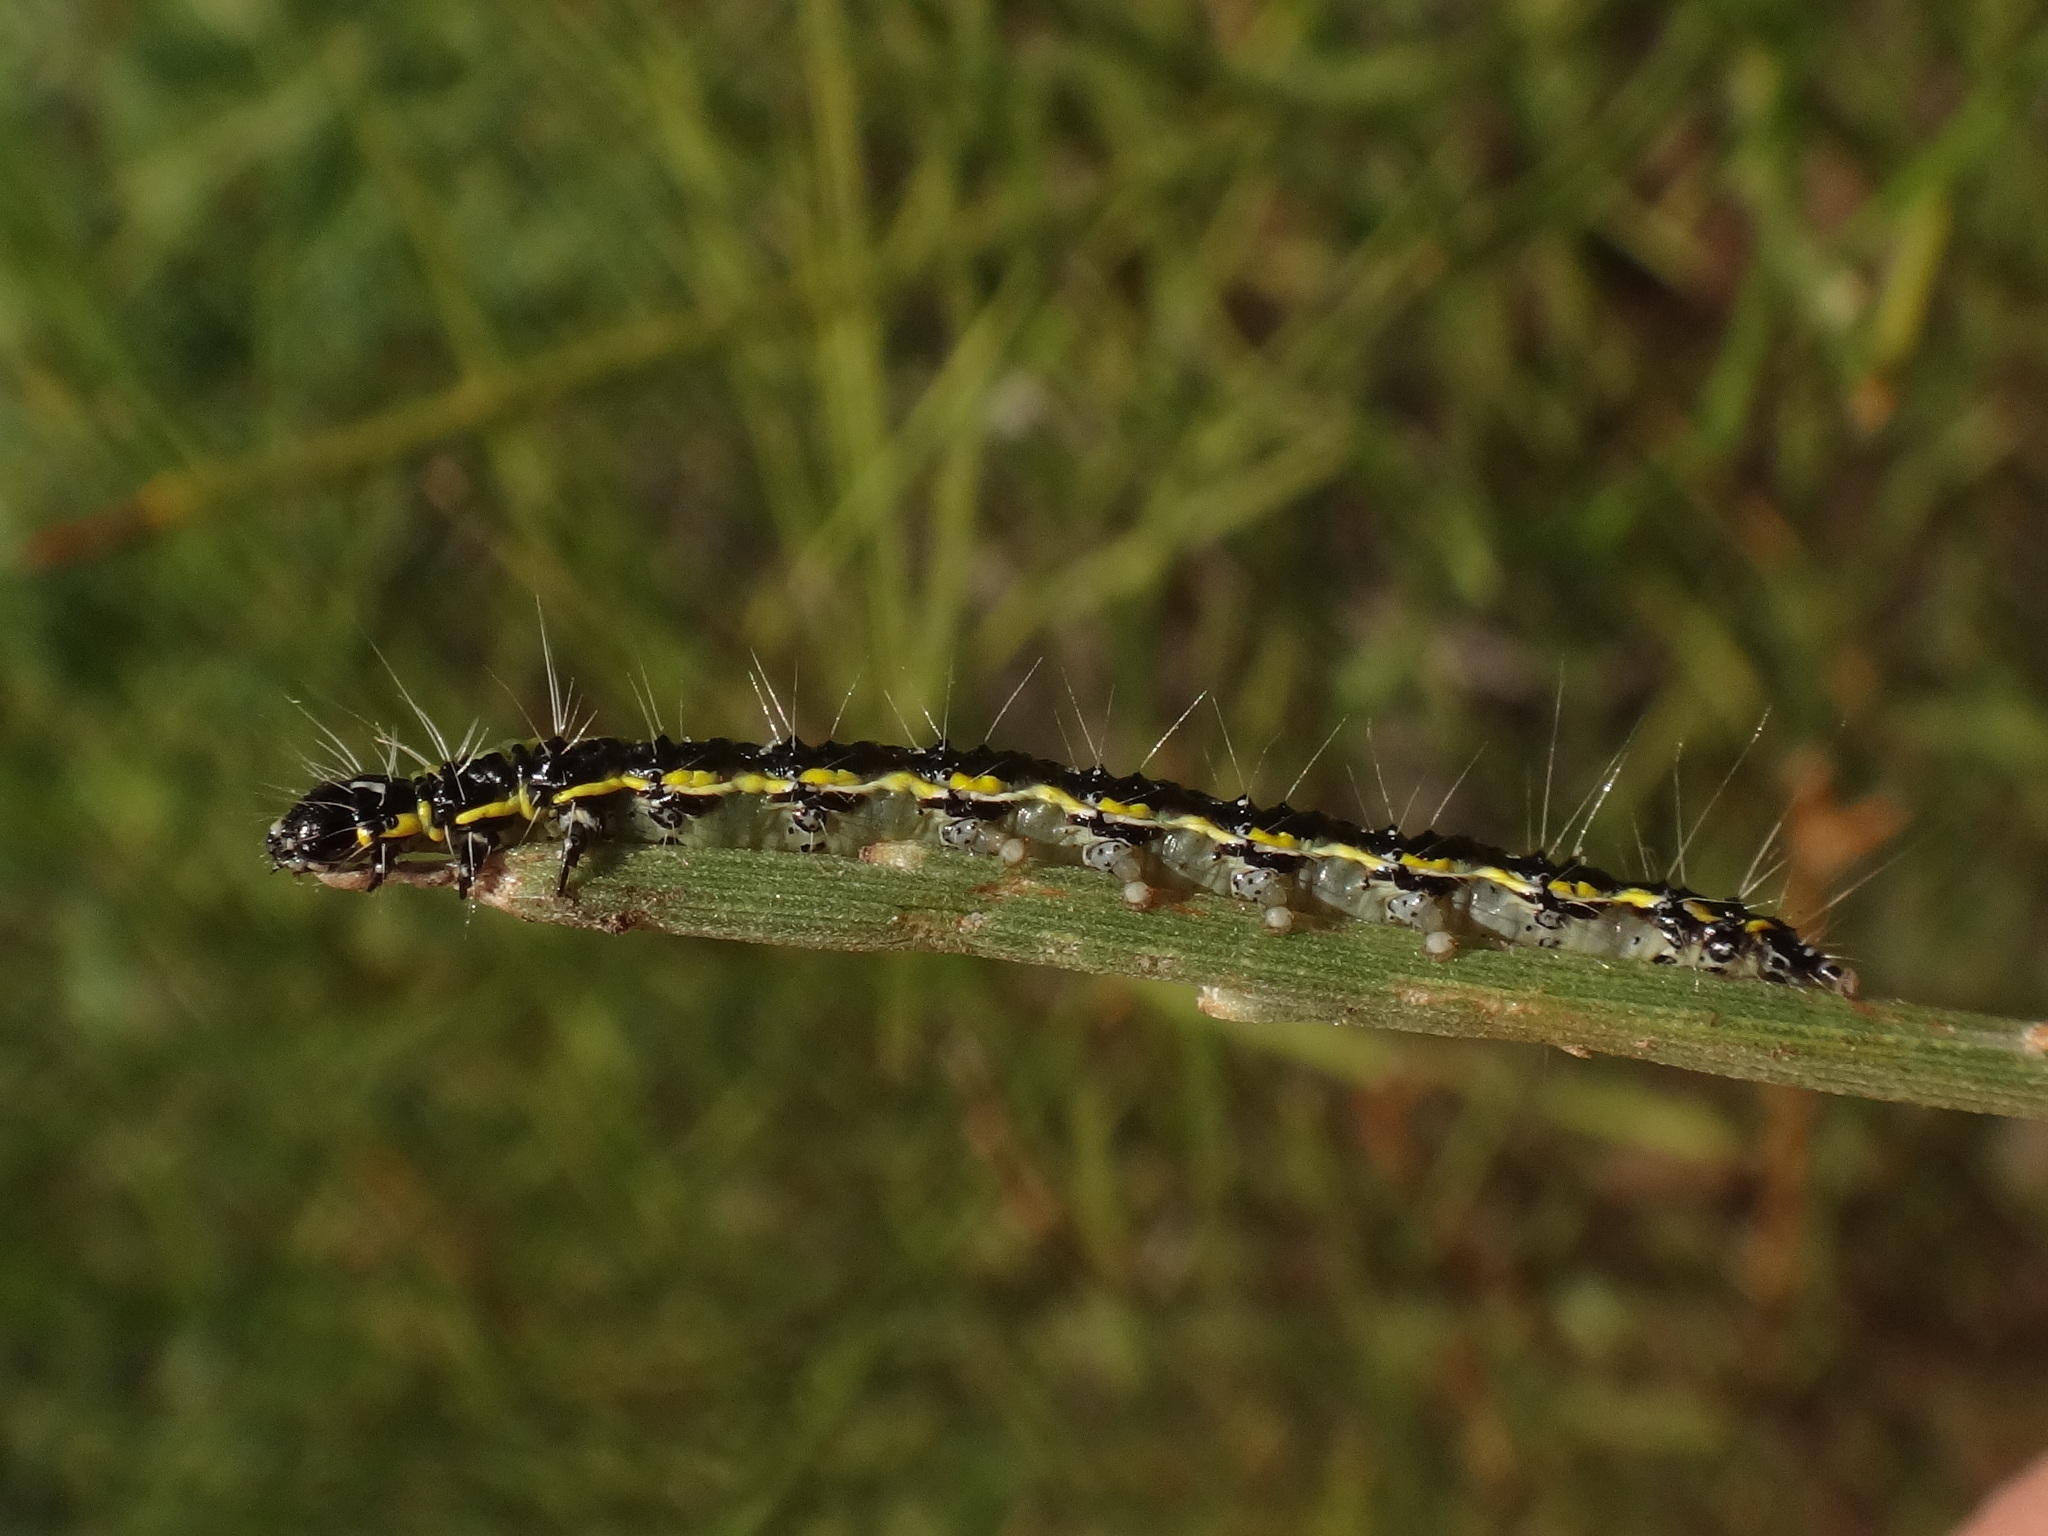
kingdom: Animalia
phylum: Arthropoda
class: Insecta
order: Lepidoptera
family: Crambidae
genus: Uresiphita
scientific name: Uresiphita gilvata
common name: Yellow-underwing pearl
